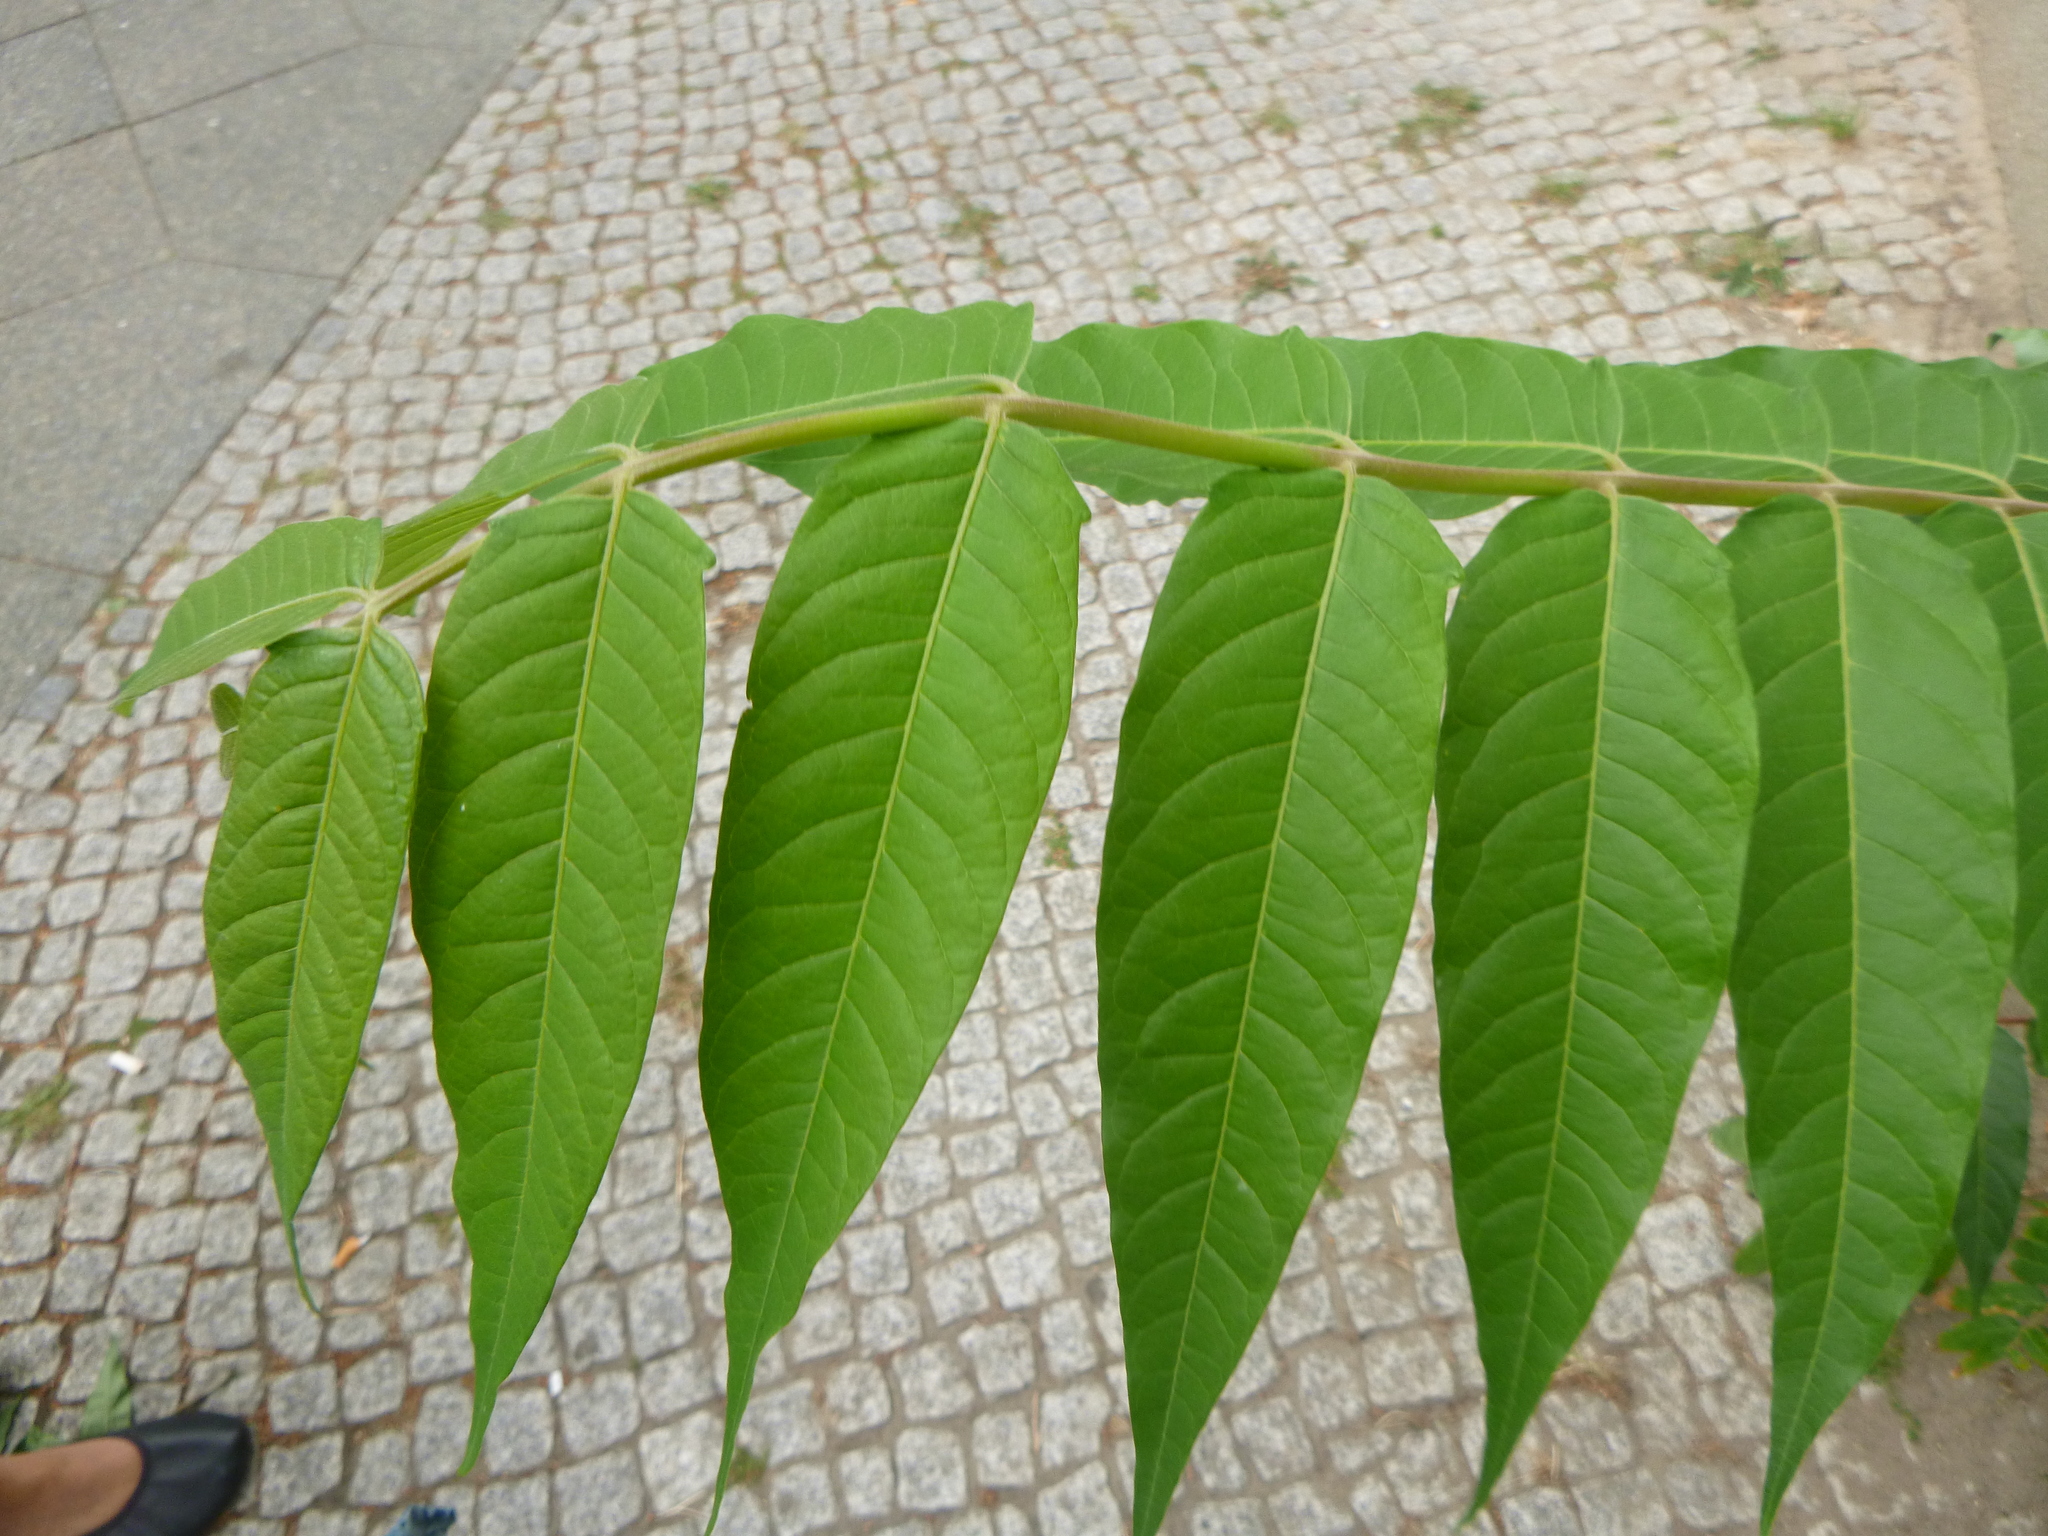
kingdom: Plantae
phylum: Tracheophyta
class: Magnoliopsida
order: Sapindales
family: Simaroubaceae
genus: Ailanthus
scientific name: Ailanthus altissima
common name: Tree-of-heaven
